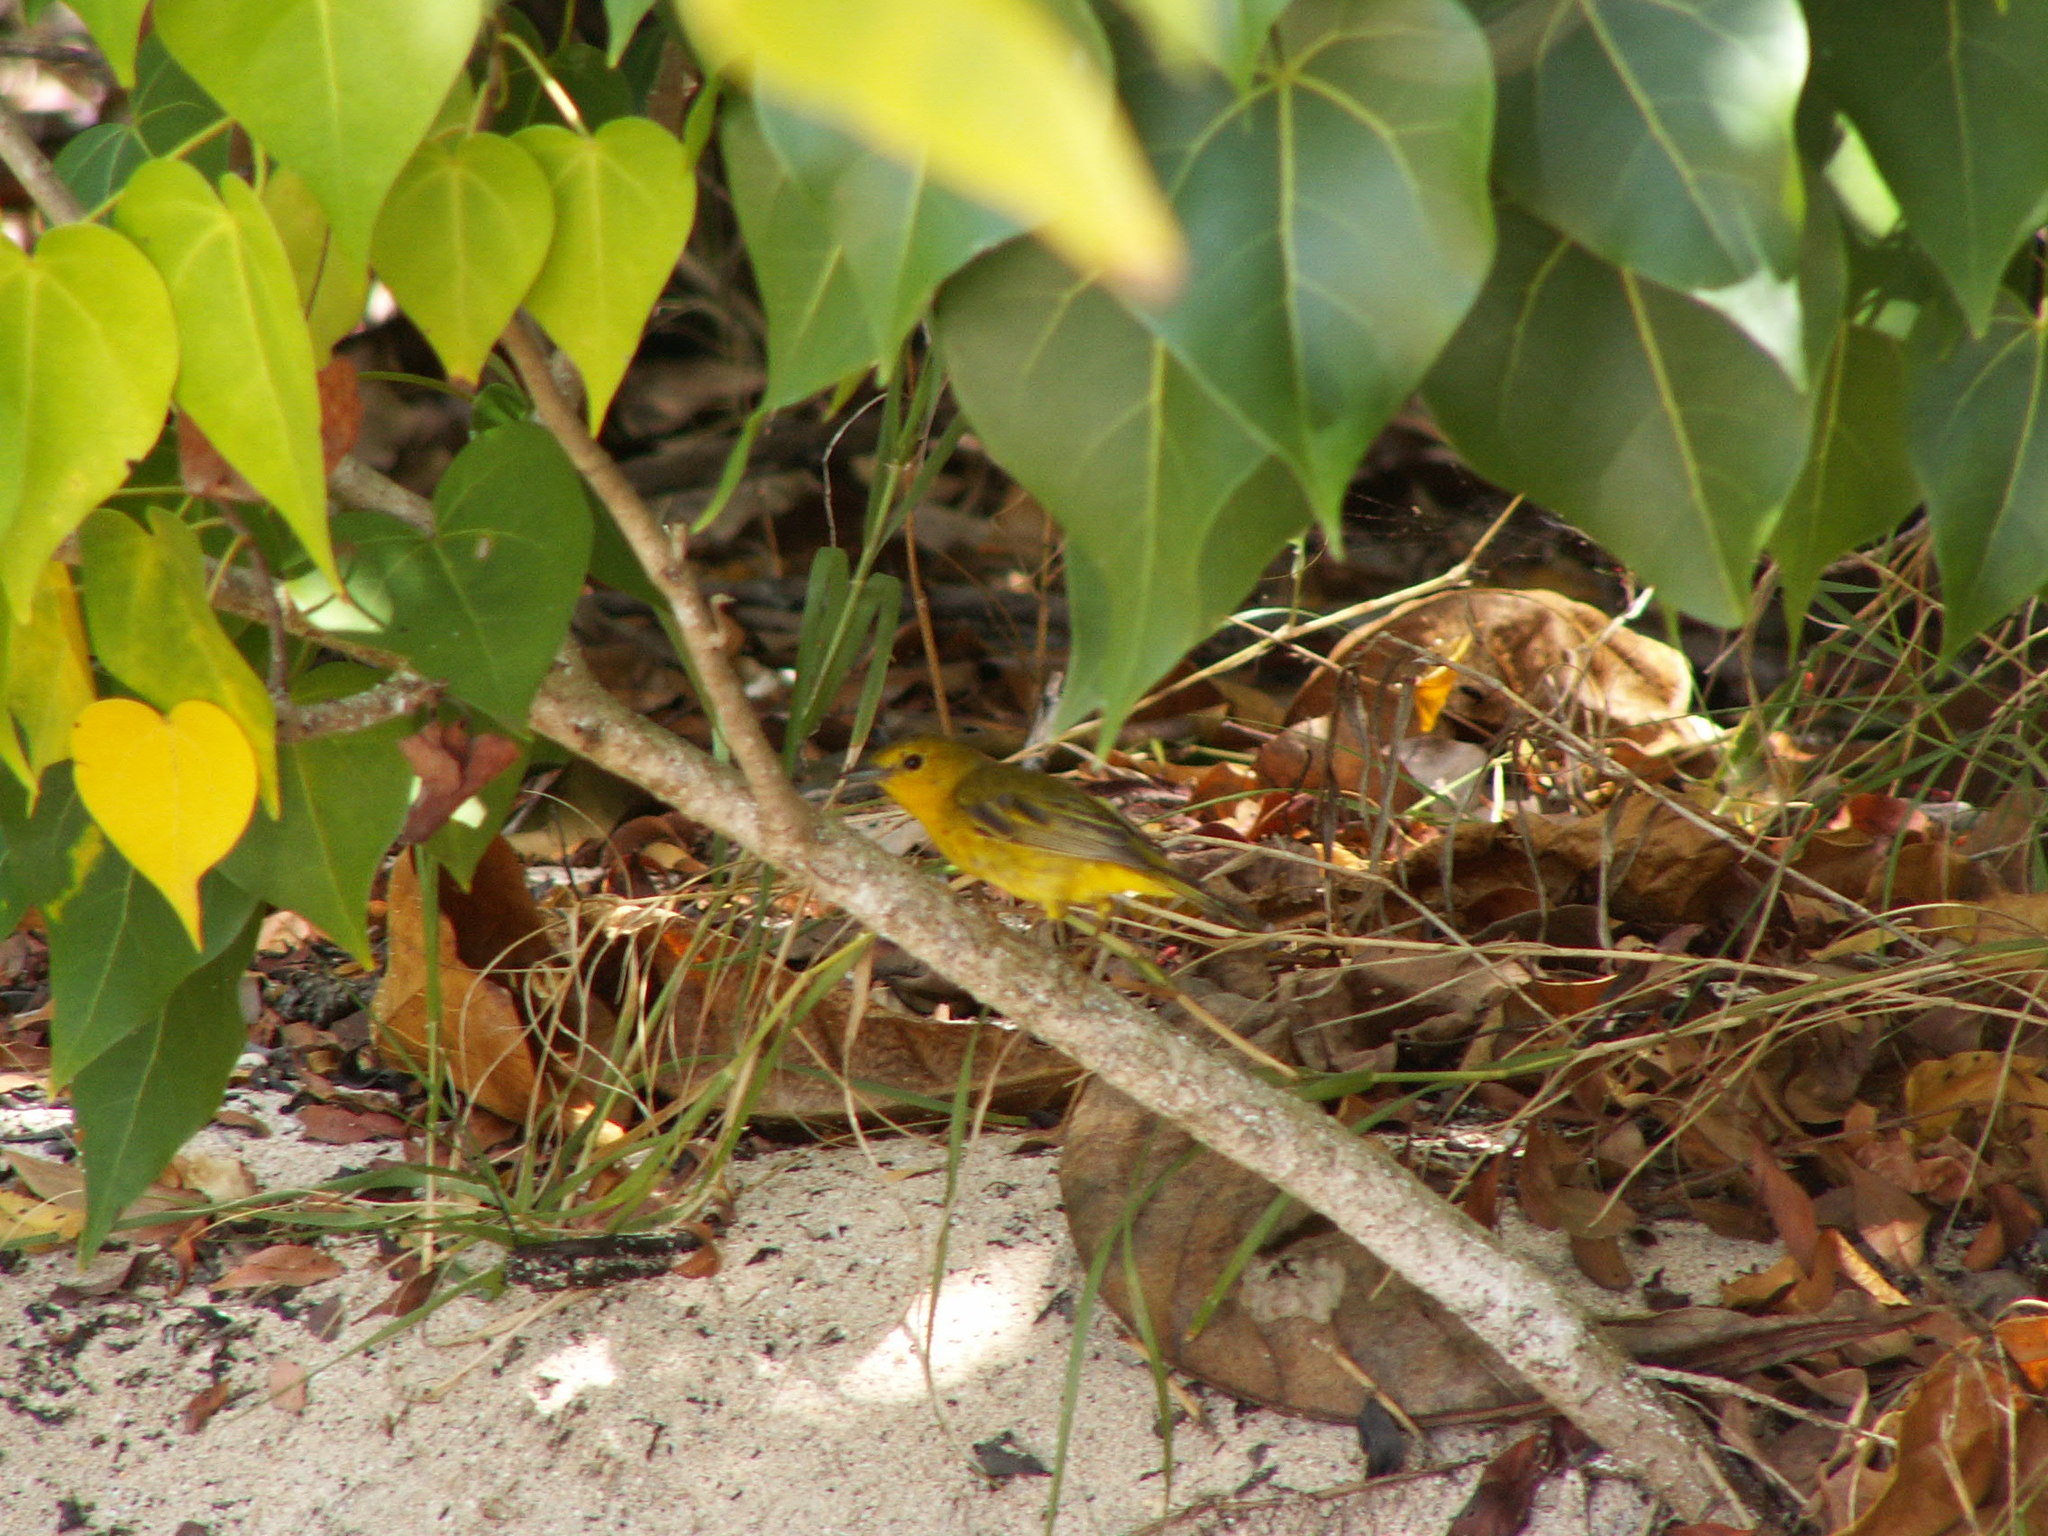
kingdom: Animalia
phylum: Chordata
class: Aves
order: Passeriformes
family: Parulidae
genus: Setophaga
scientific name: Setophaga petechia
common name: Yellow warbler
